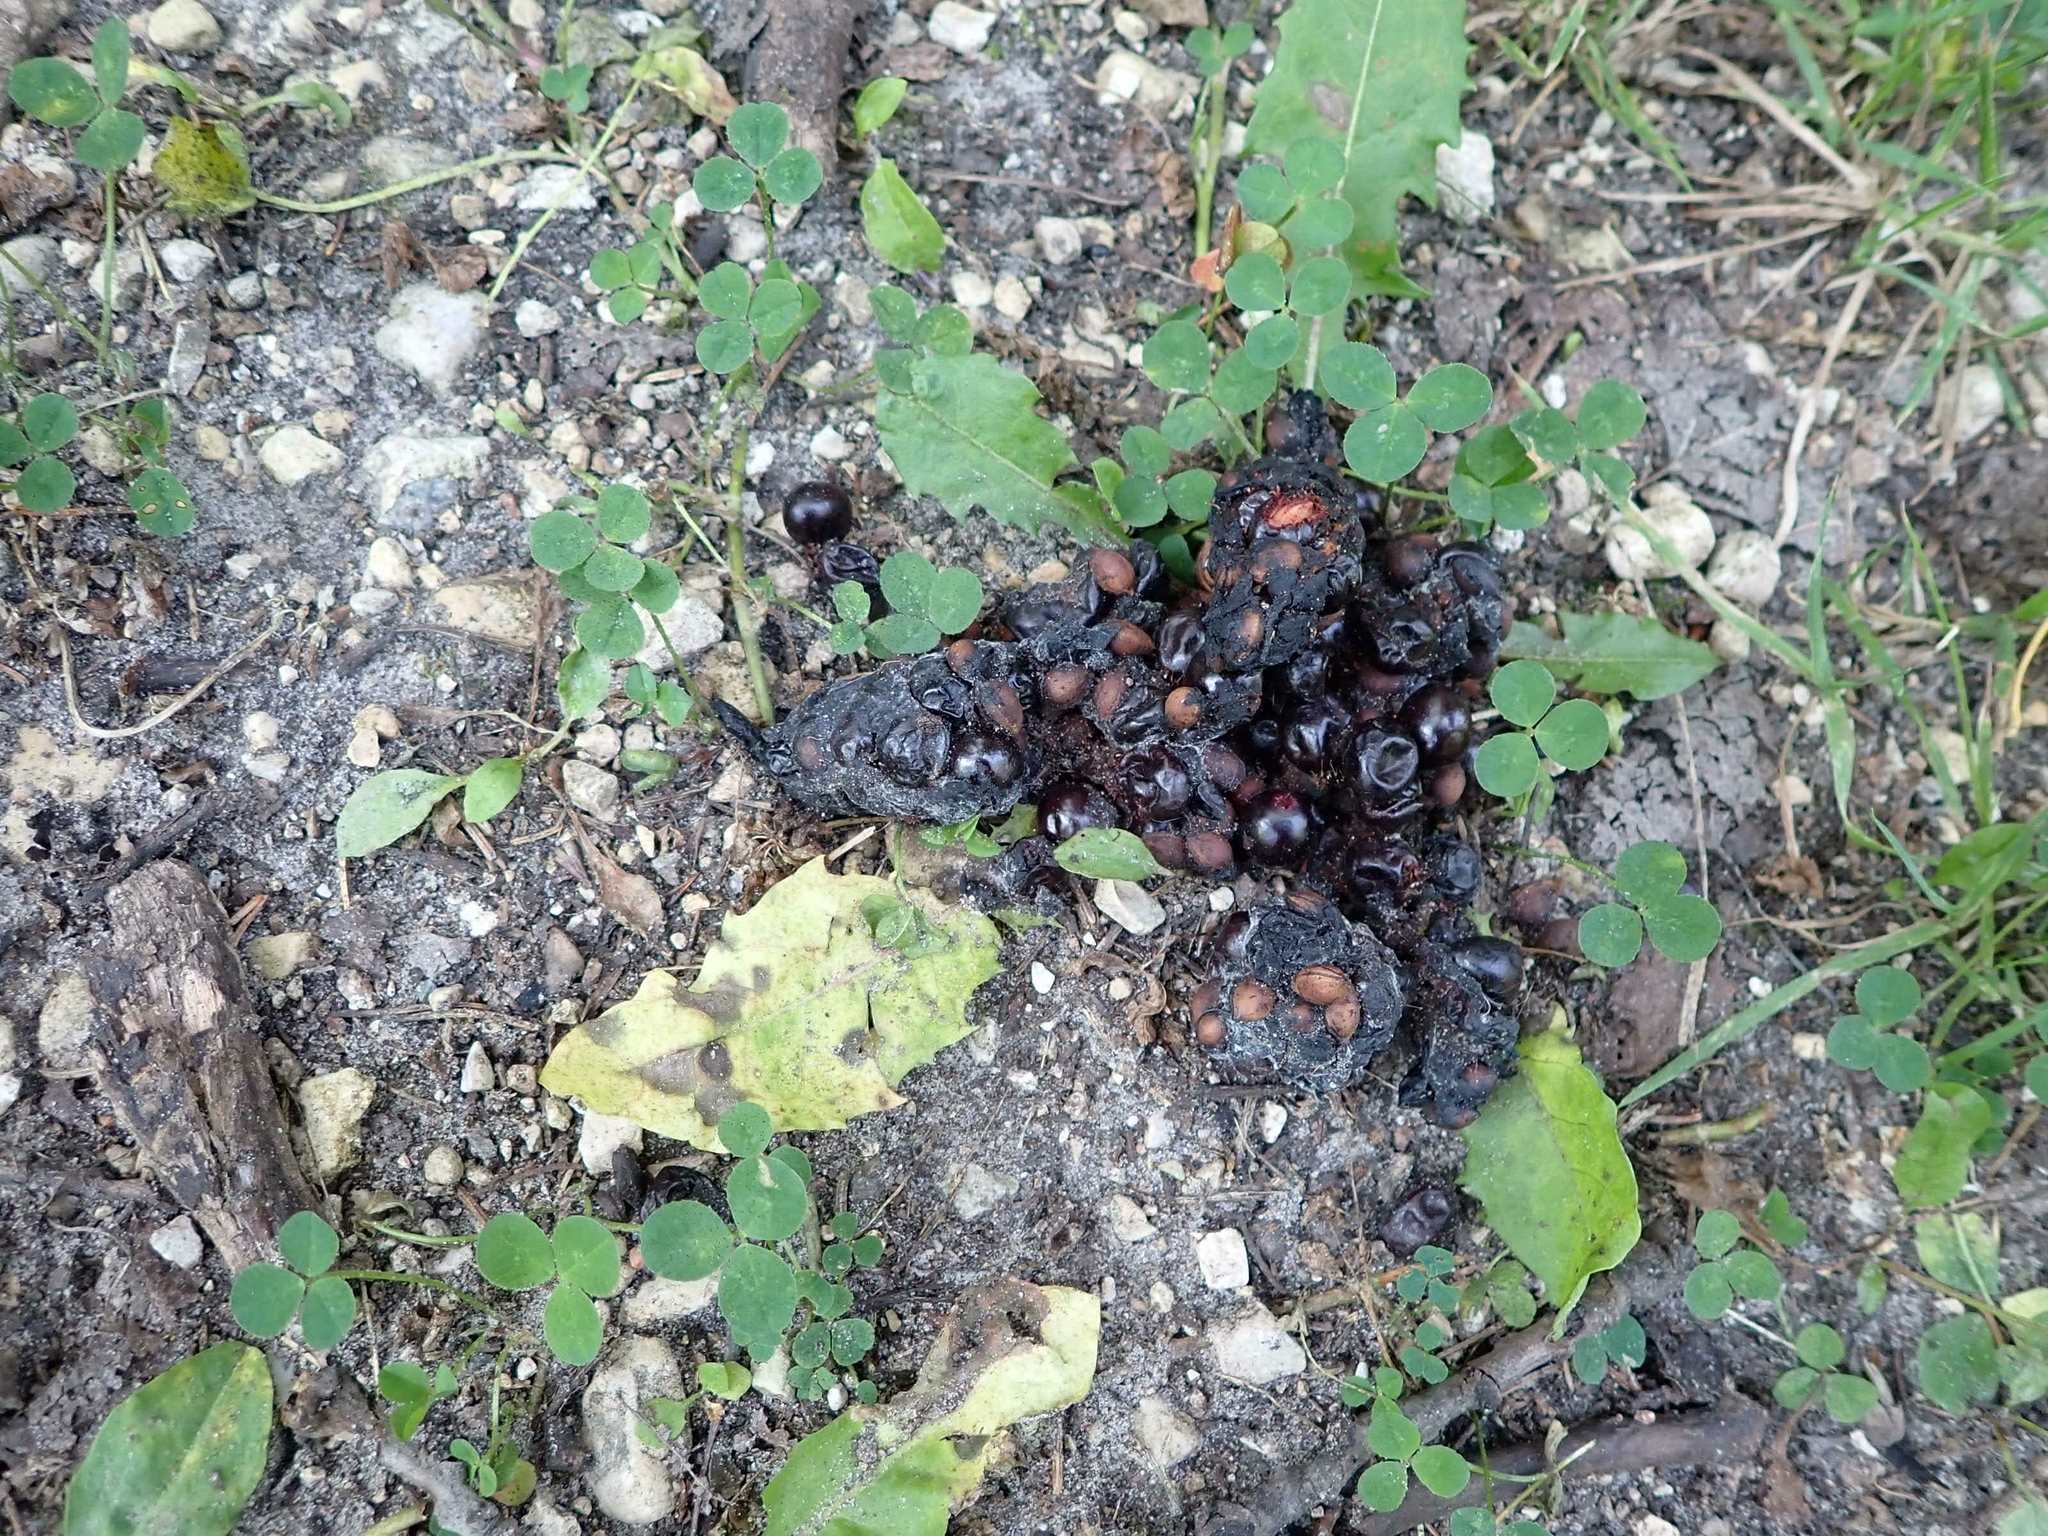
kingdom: Animalia
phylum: Chordata
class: Mammalia
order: Carnivora
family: Ursidae
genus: Ursus
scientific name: Ursus americanus
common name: American black bear
